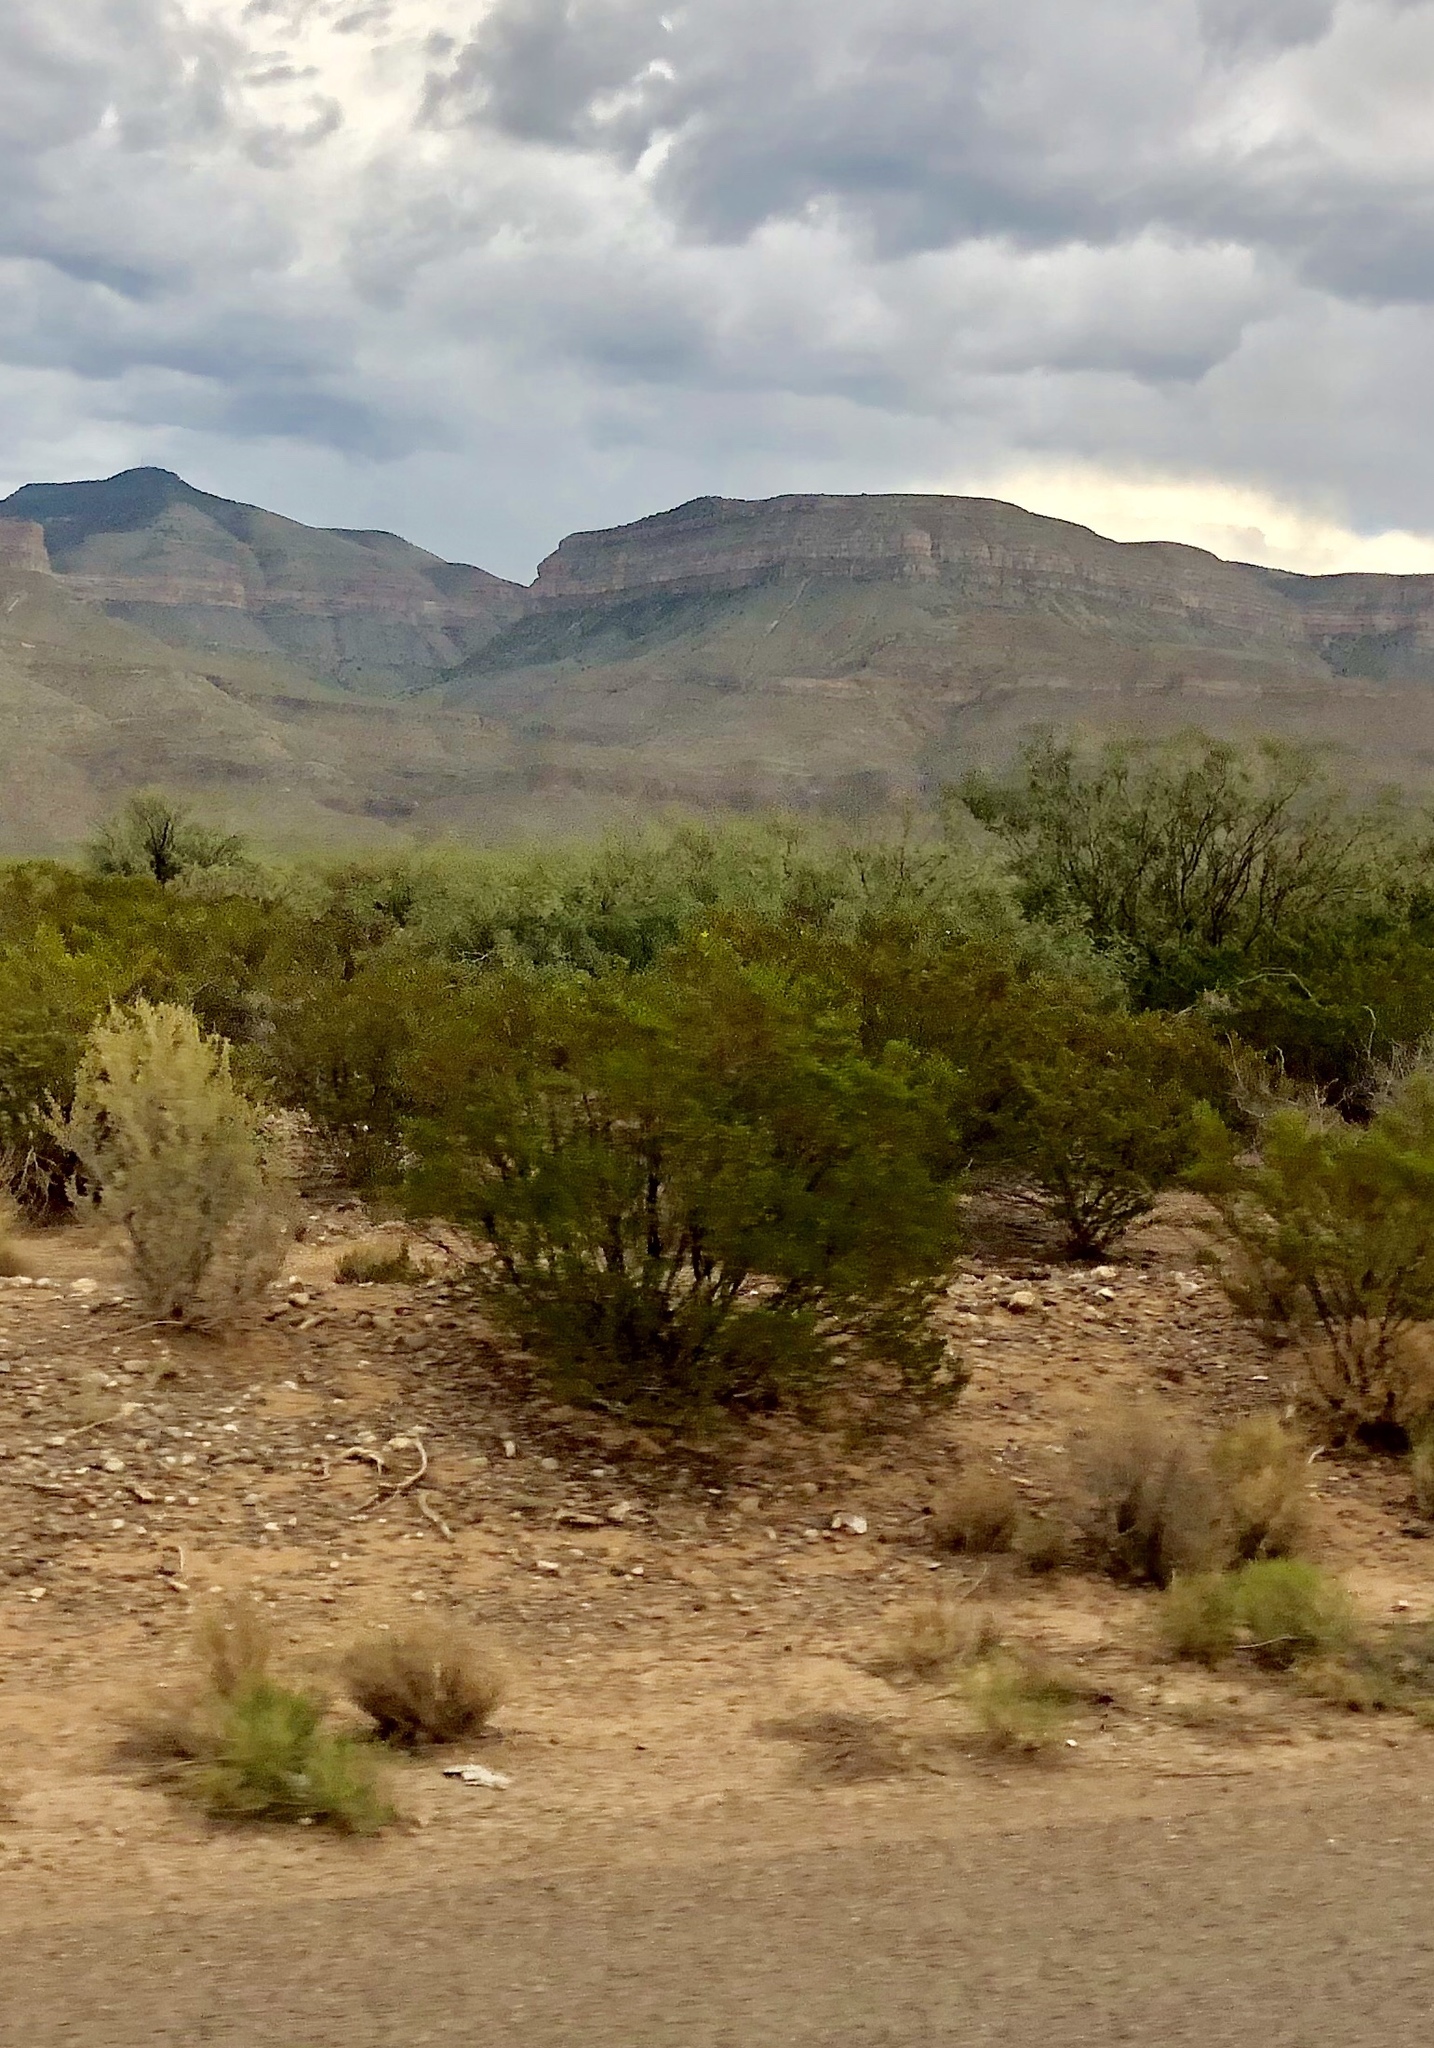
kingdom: Plantae
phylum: Tracheophyta
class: Magnoliopsida
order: Zygophyllales
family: Zygophyllaceae
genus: Larrea
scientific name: Larrea tridentata
